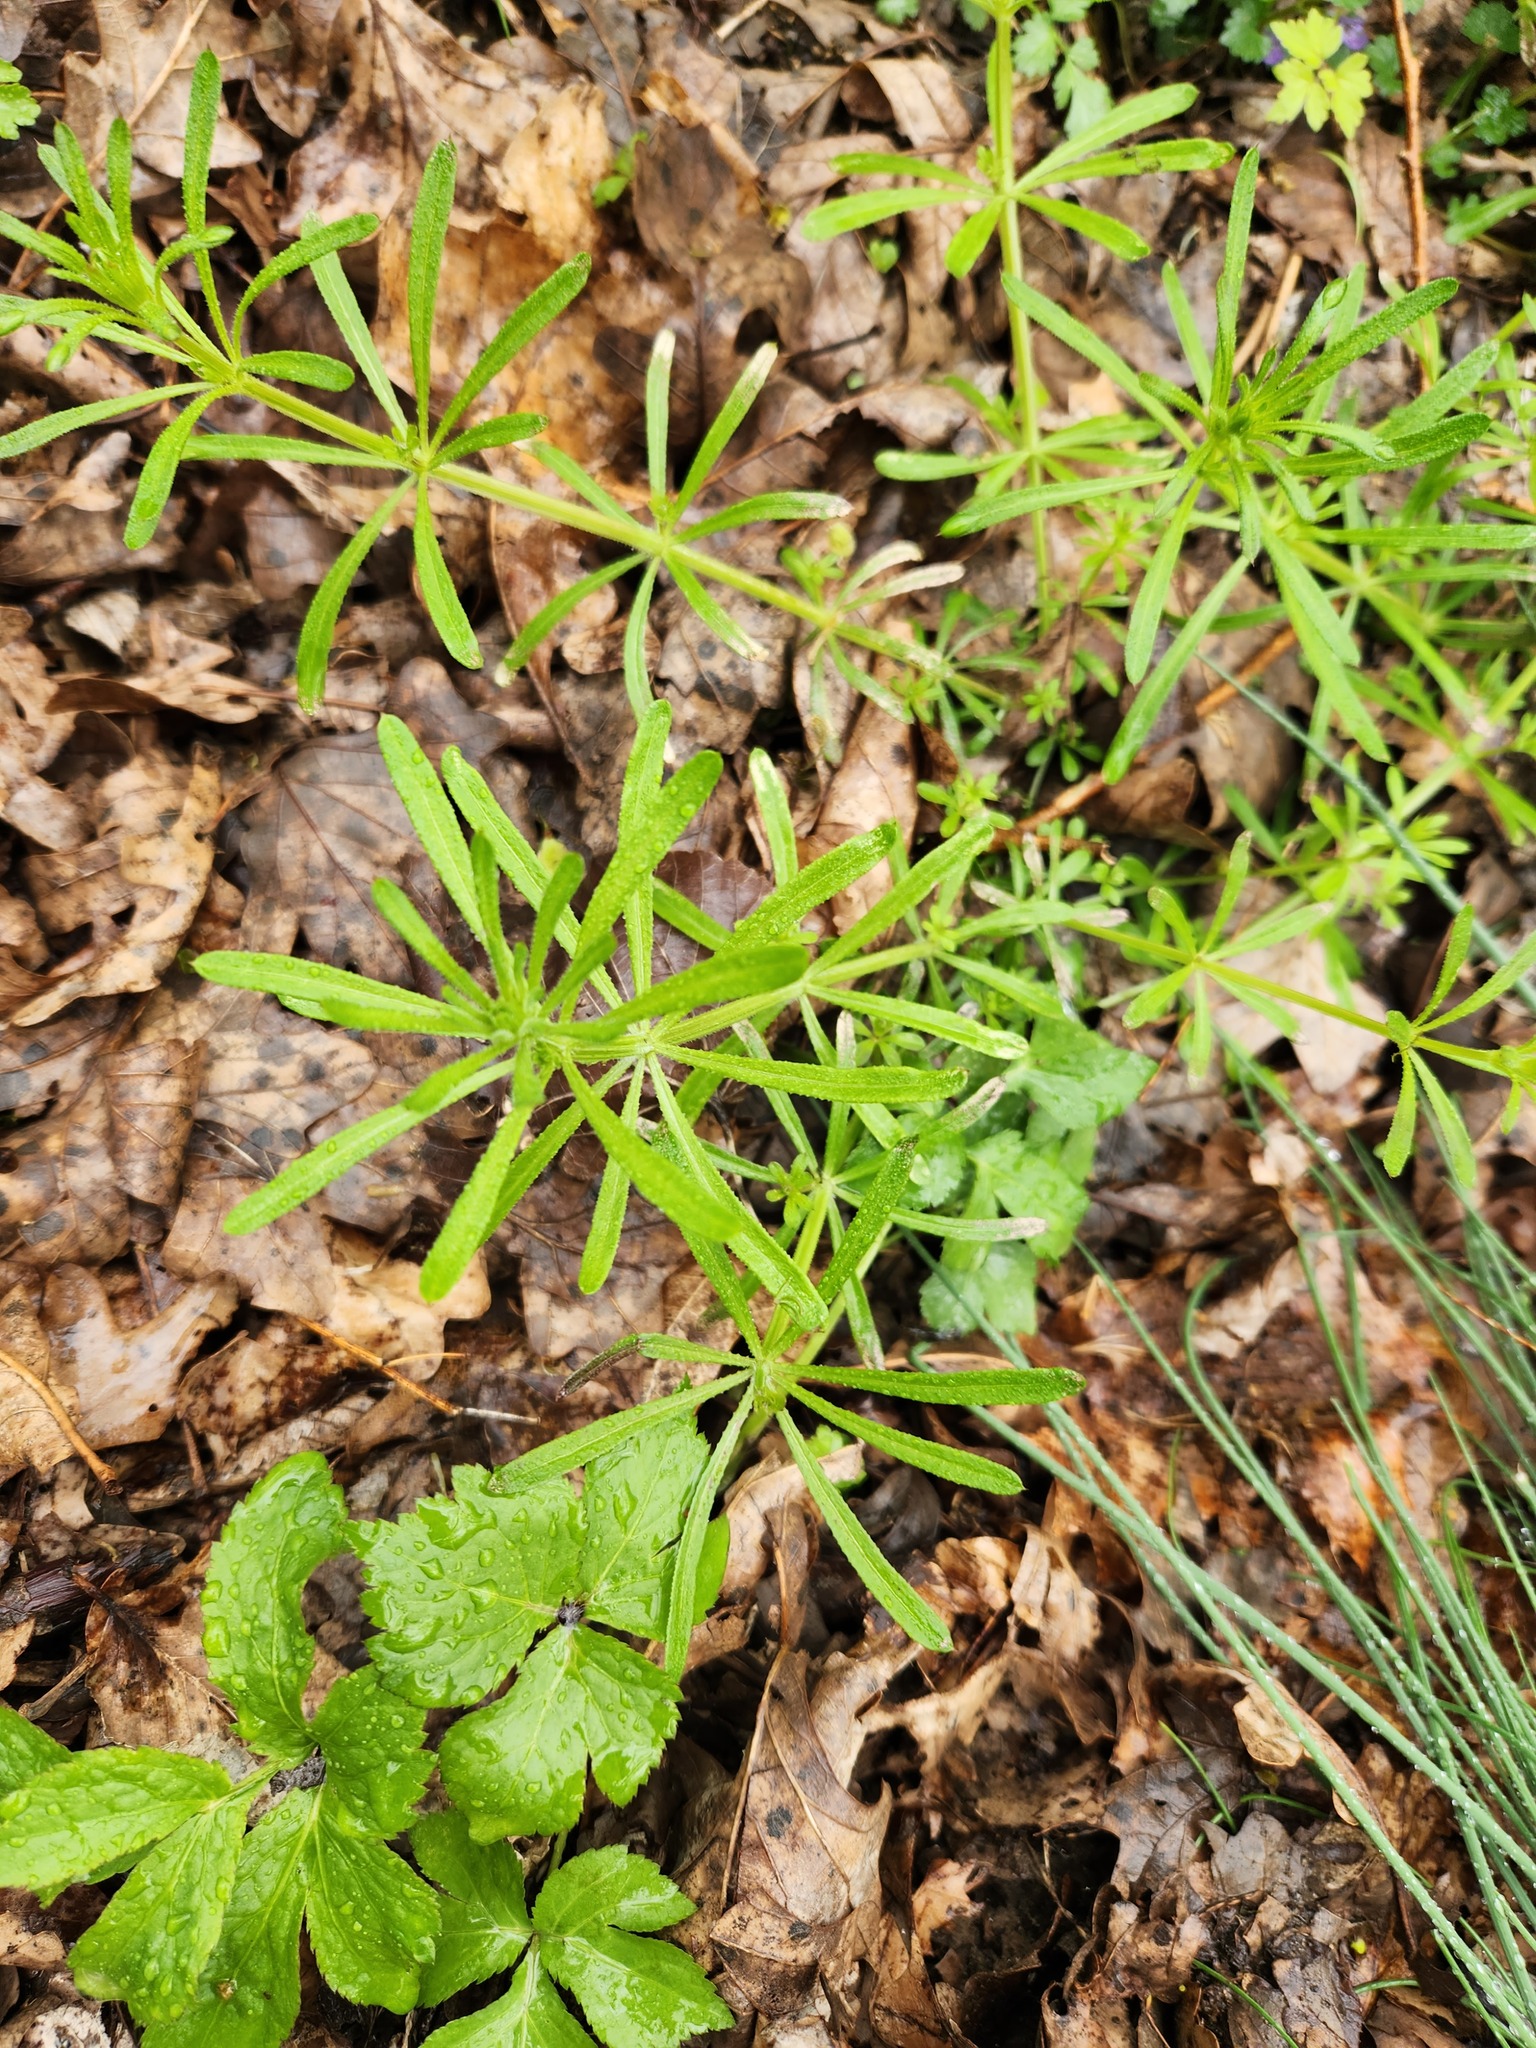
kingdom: Plantae
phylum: Tracheophyta
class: Magnoliopsida
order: Gentianales
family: Rubiaceae
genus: Galium
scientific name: Galium aparine
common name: Cleavers
